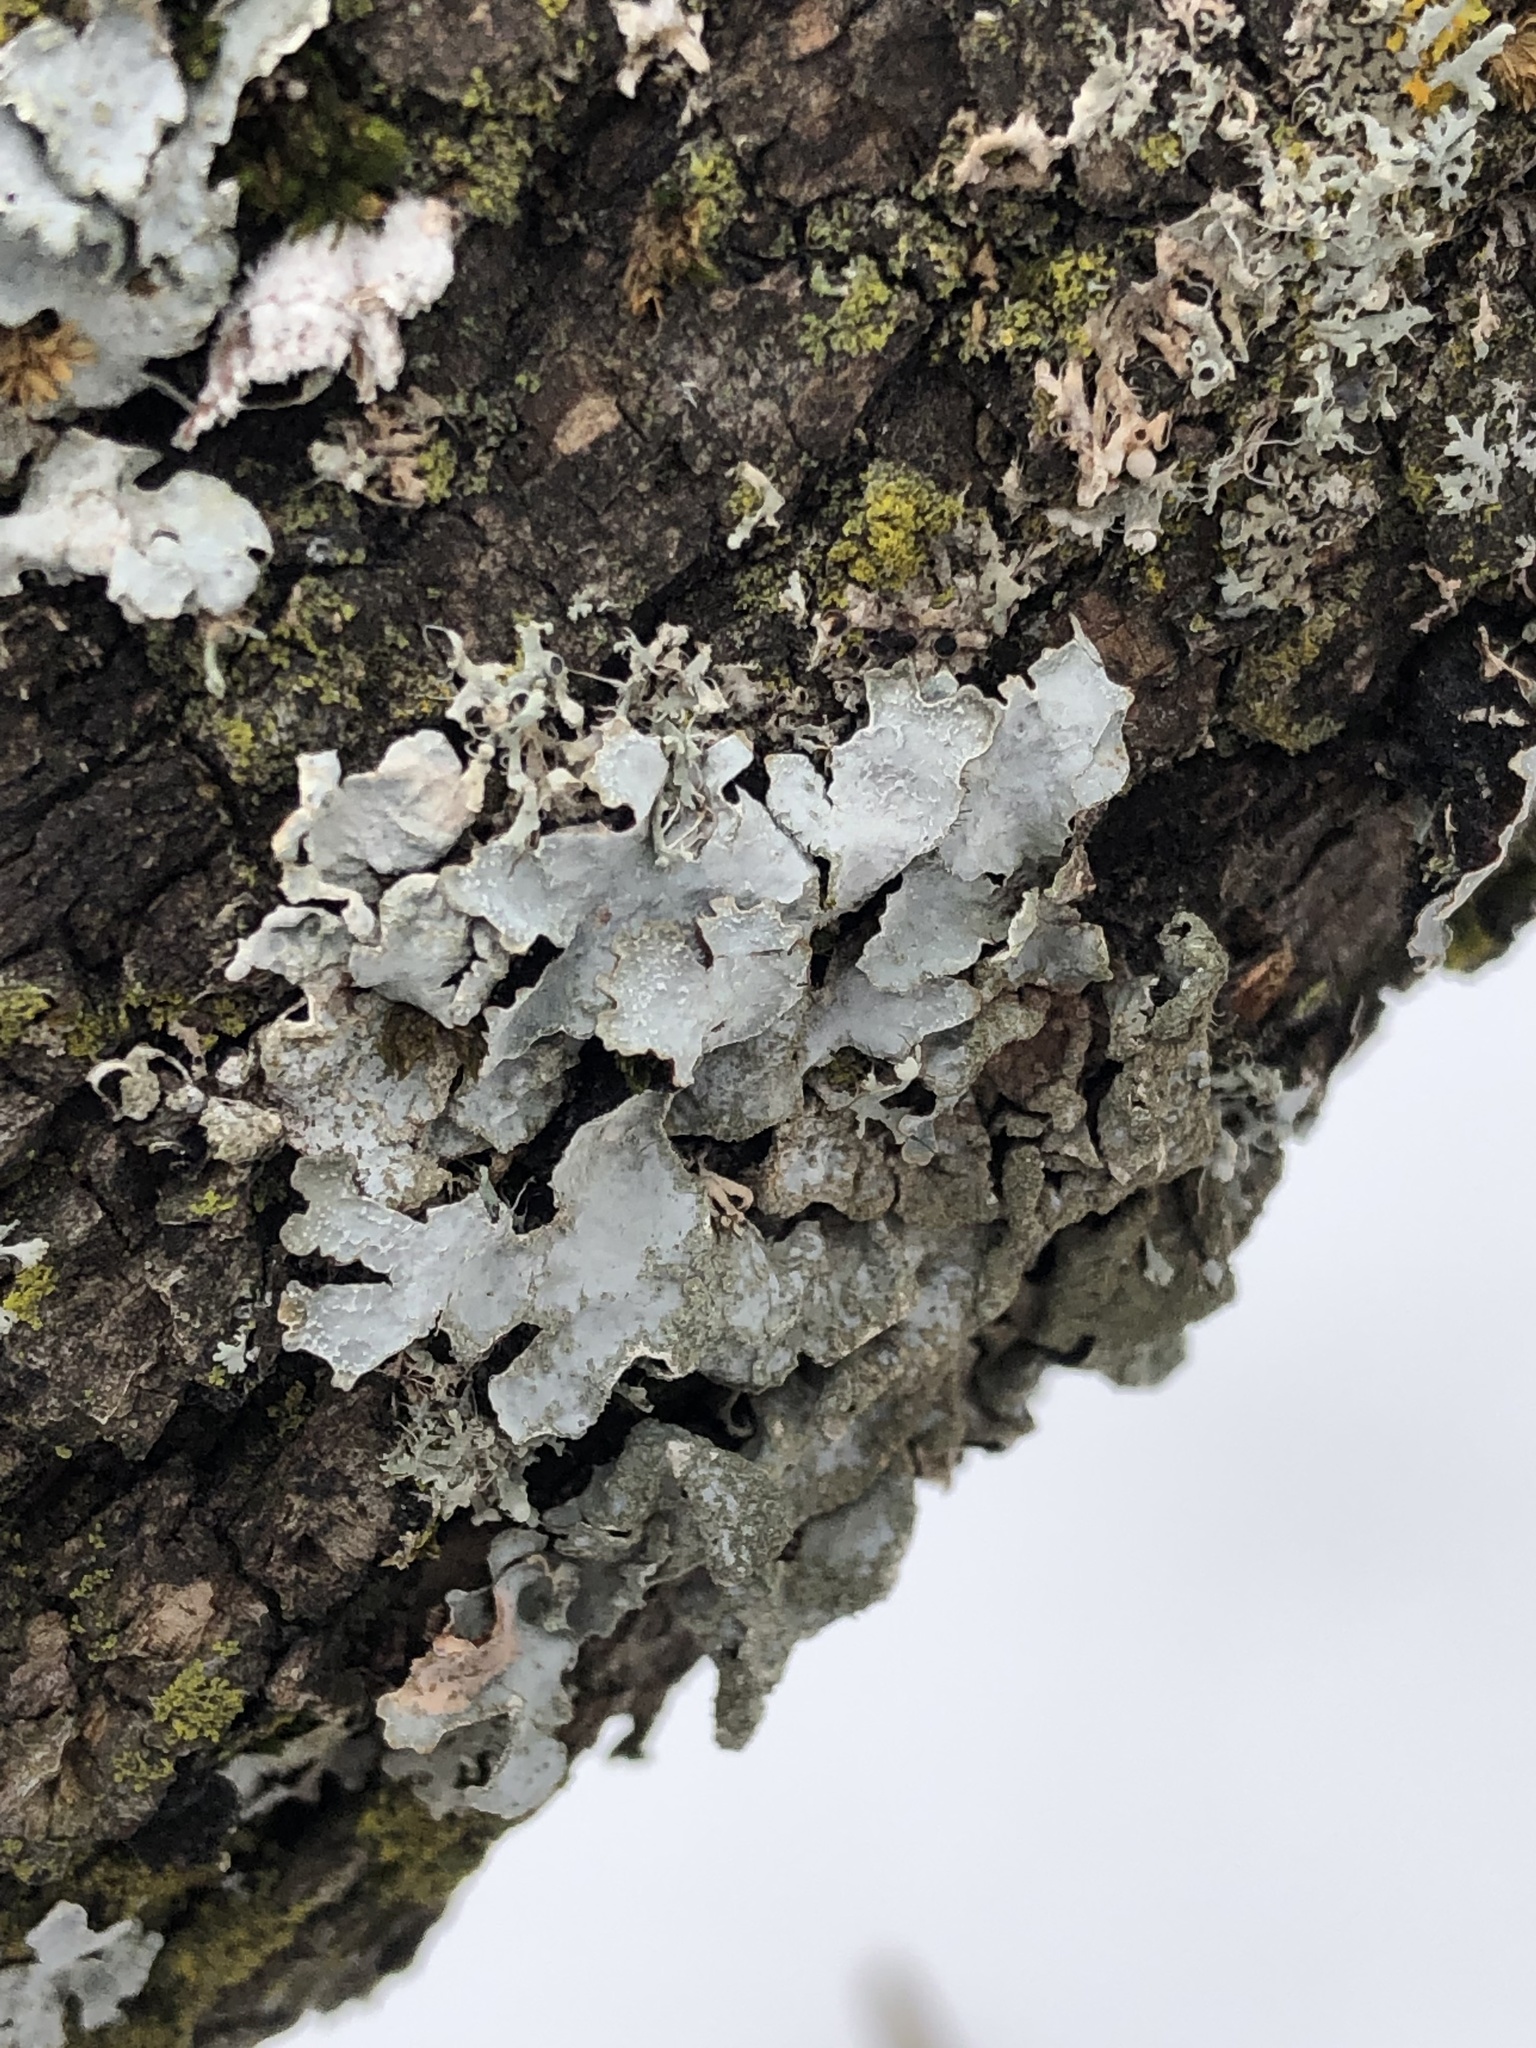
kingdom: Fungi
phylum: Ascomycota
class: Lecanoromycetes
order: Lecanorales
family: Parmeliaceae
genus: Parmelia
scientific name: Parmelia sulcata
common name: Netted shield lichen
